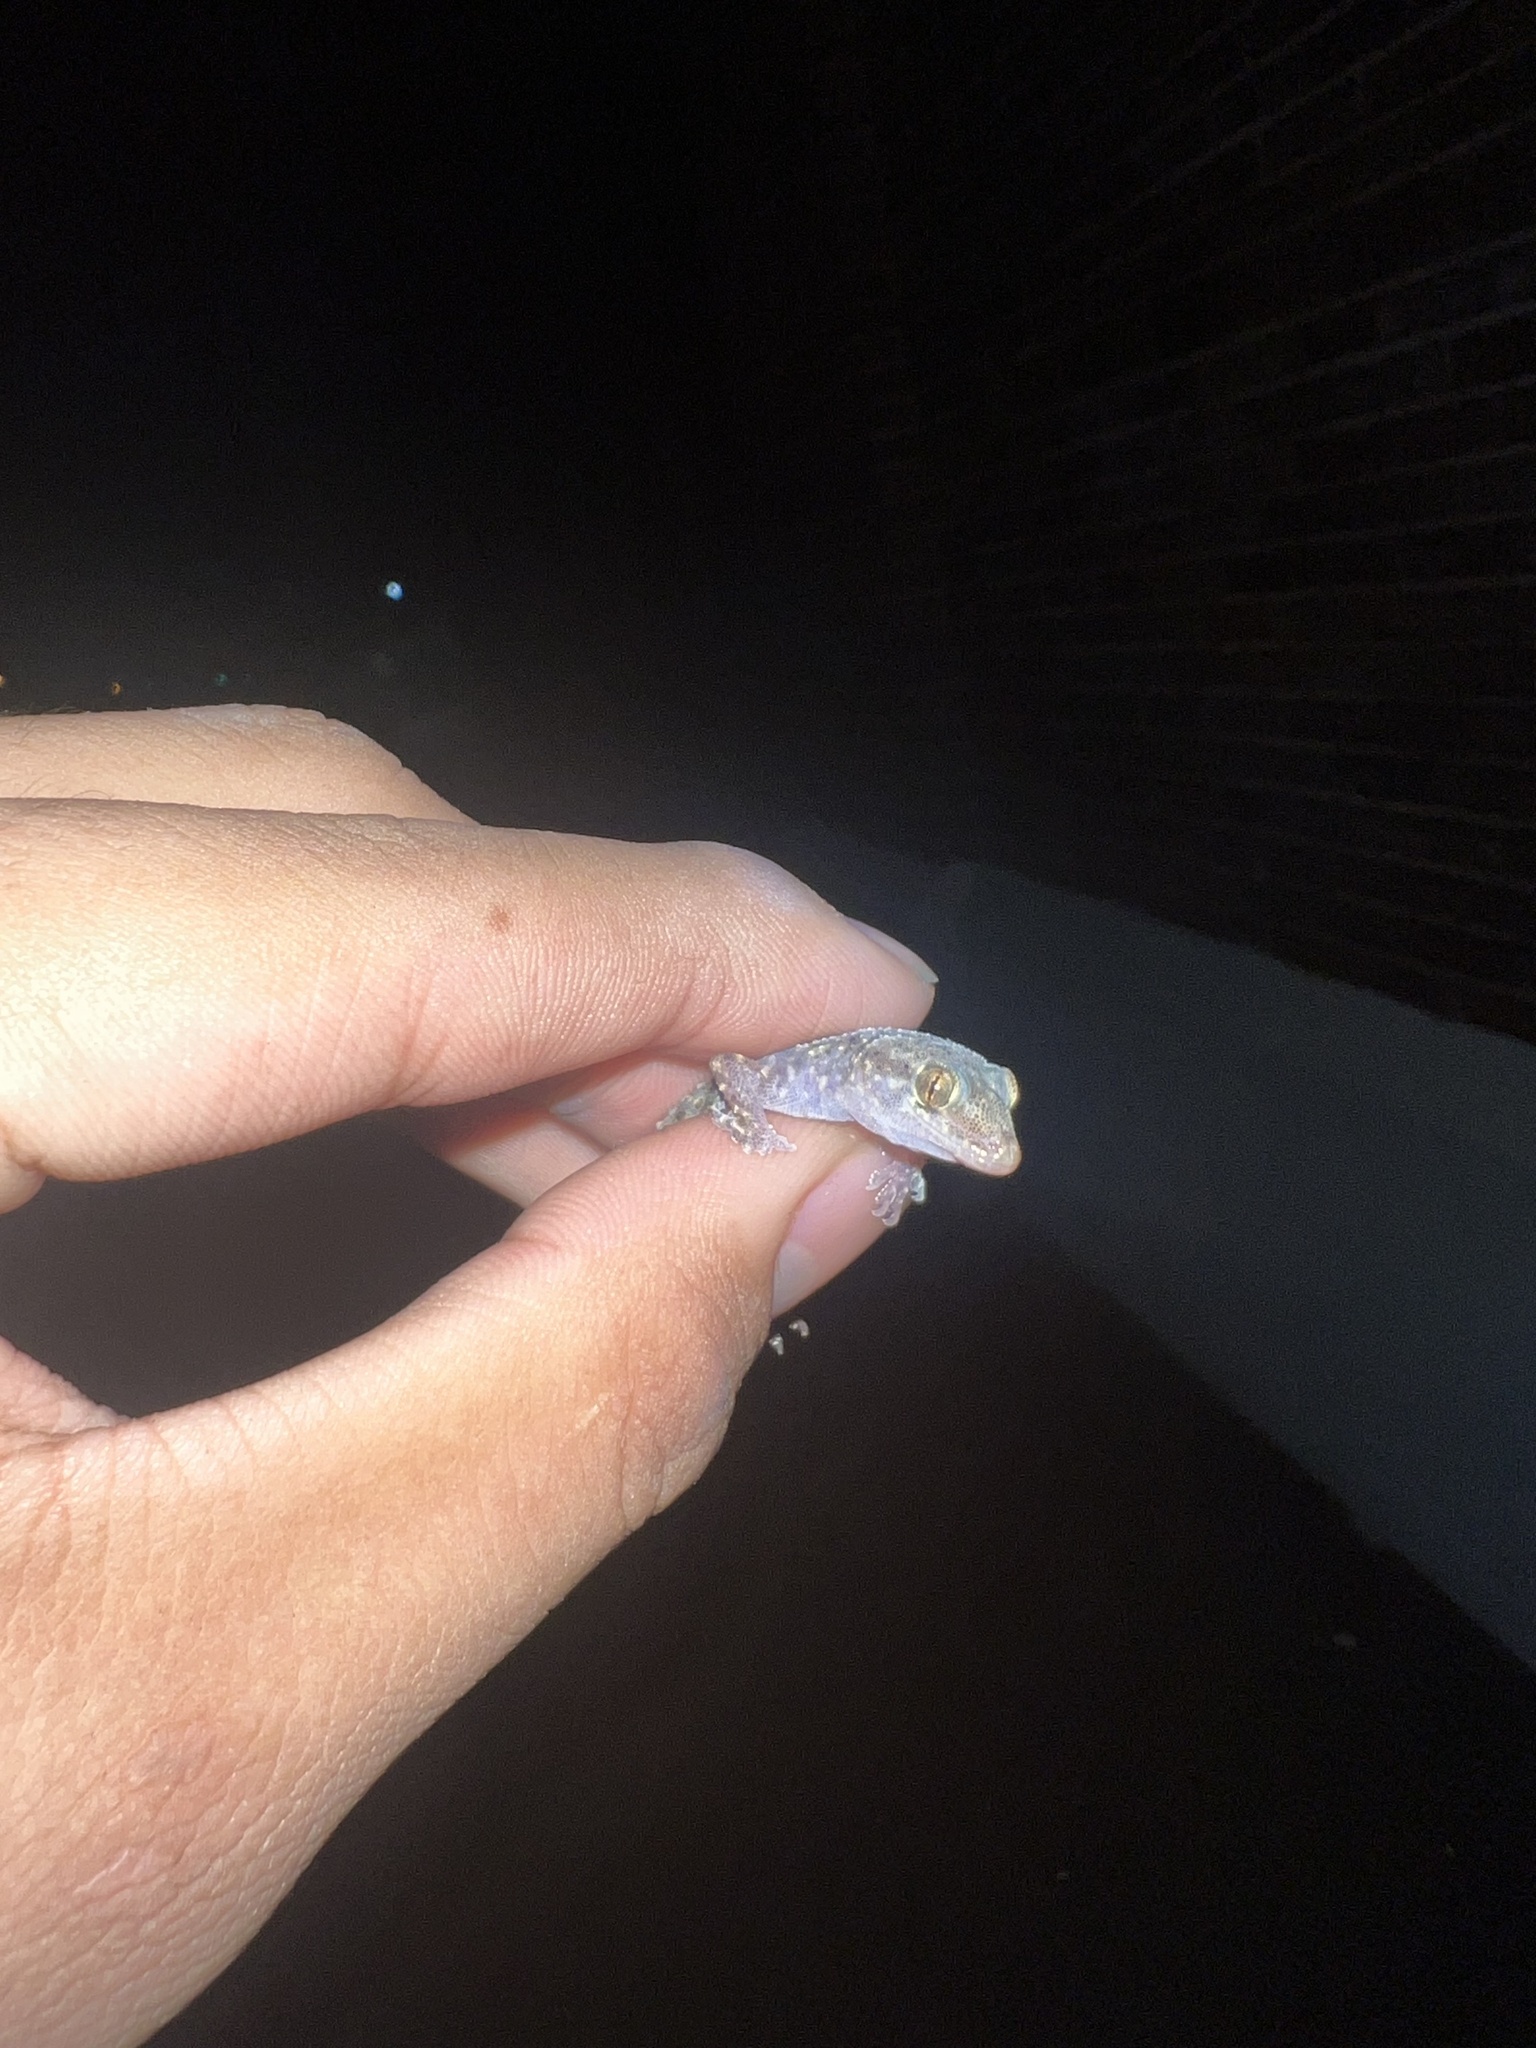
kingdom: Animalia
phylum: Chordata
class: Squamata
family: Gekkonidae
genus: Hemidactylus
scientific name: Hemidactylus turcicus
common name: Turkish gecko
